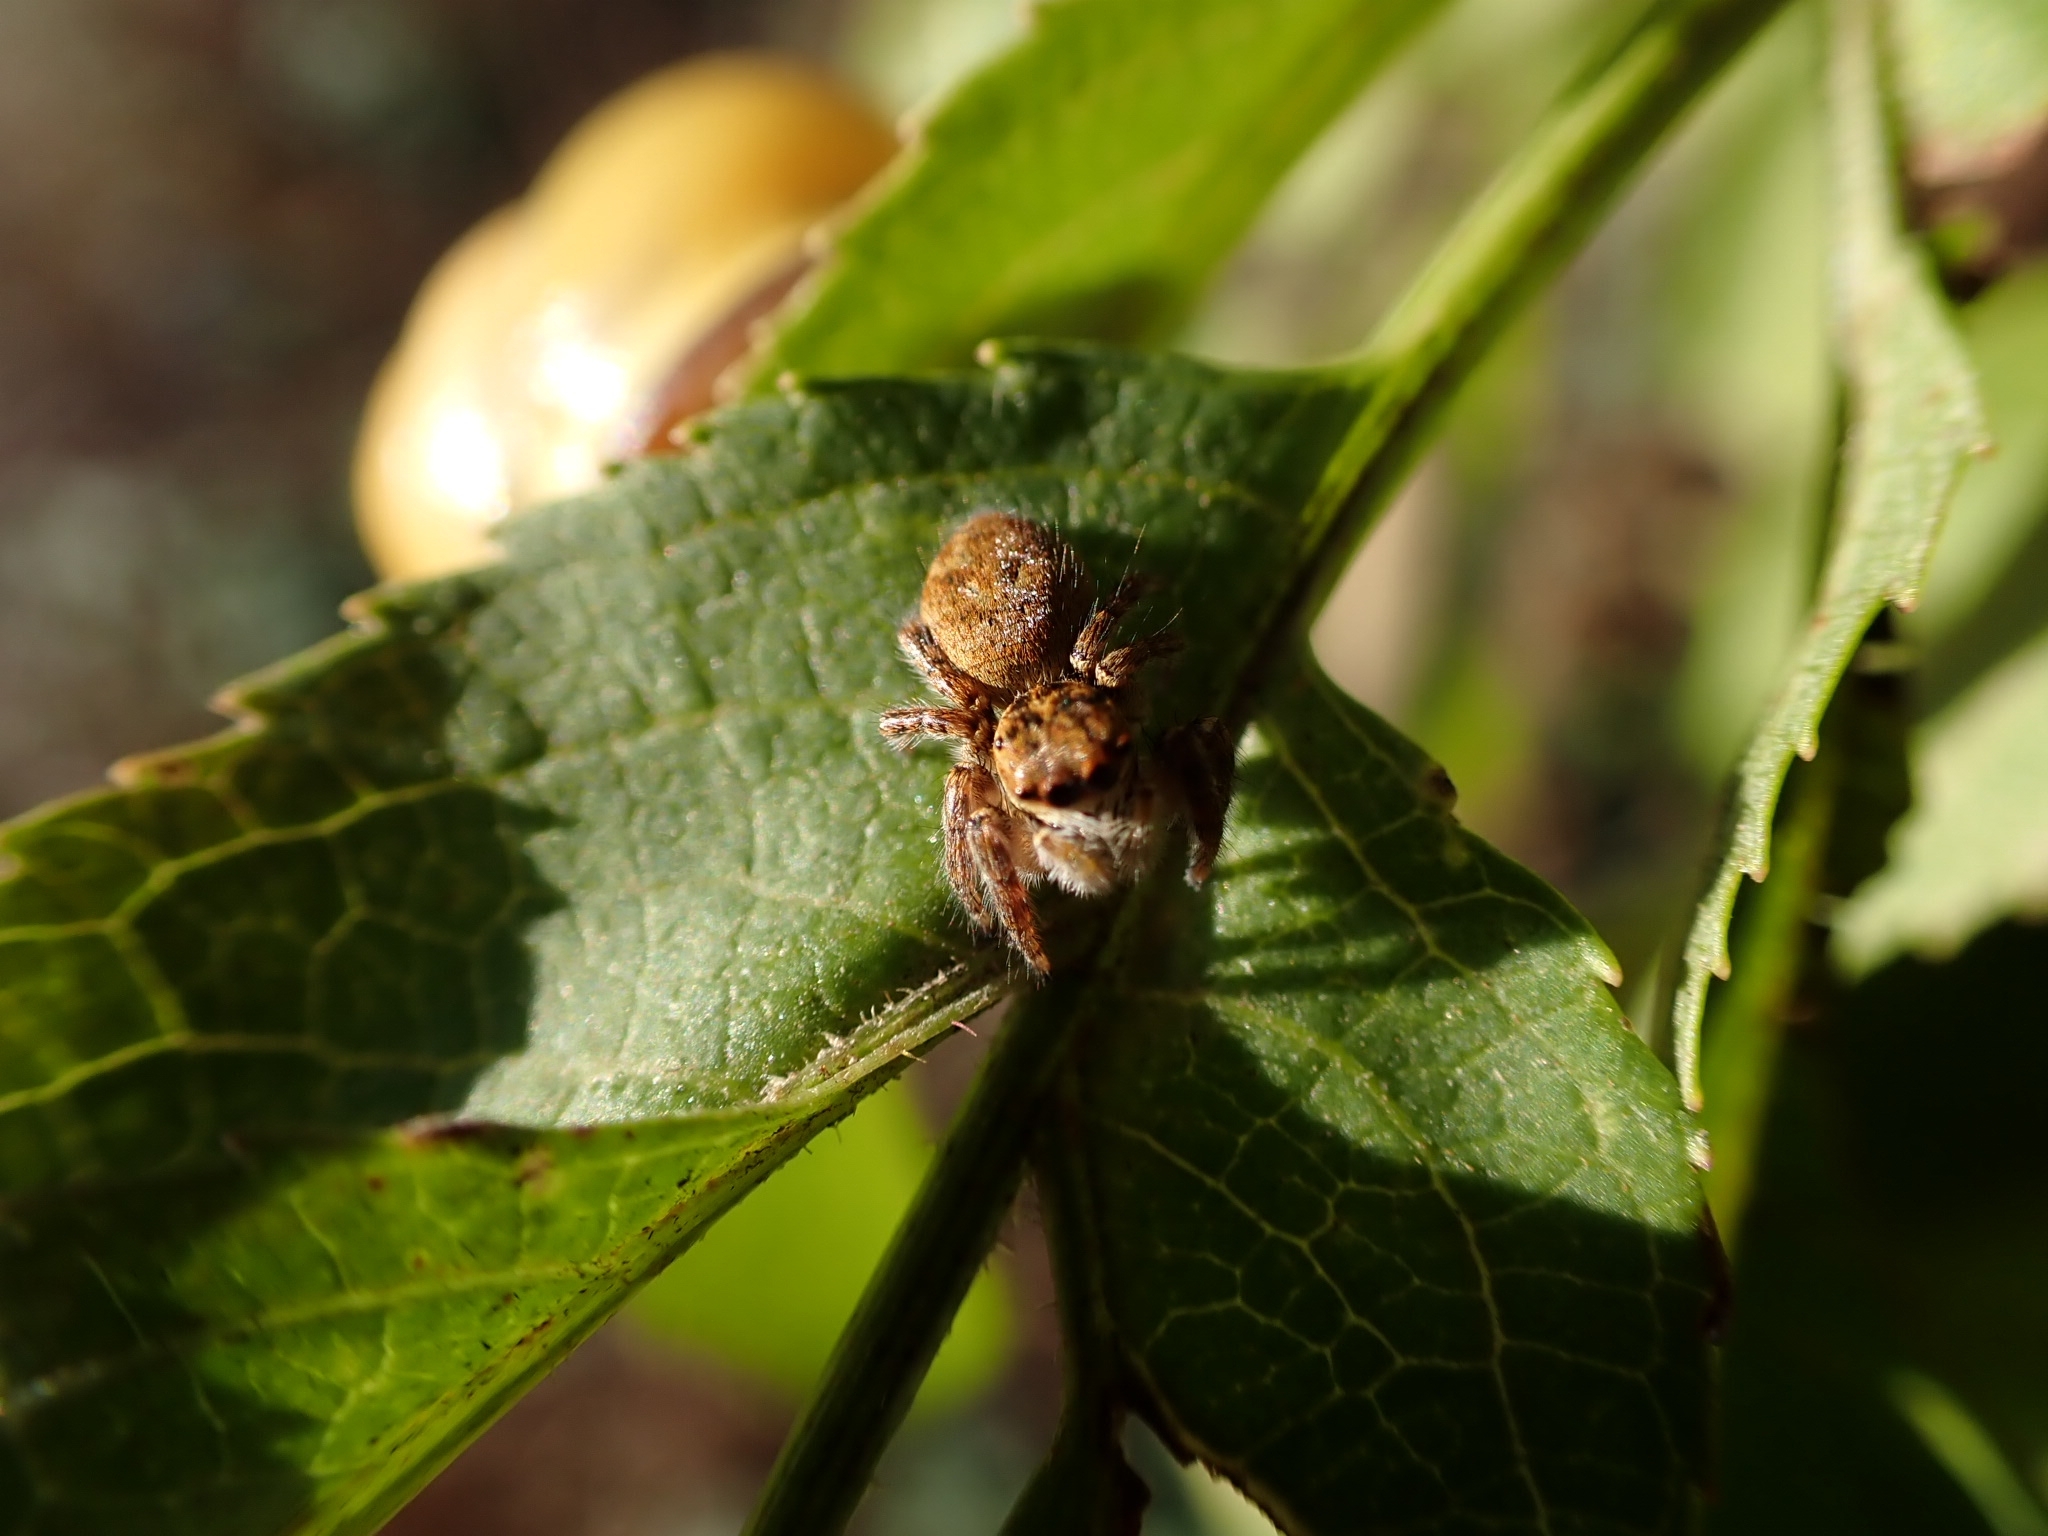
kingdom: Animalia
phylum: Arthropoda
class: Arachnida
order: Araneae
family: Salticidae
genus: Carrhotus
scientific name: Carrhotus xanthogramma
